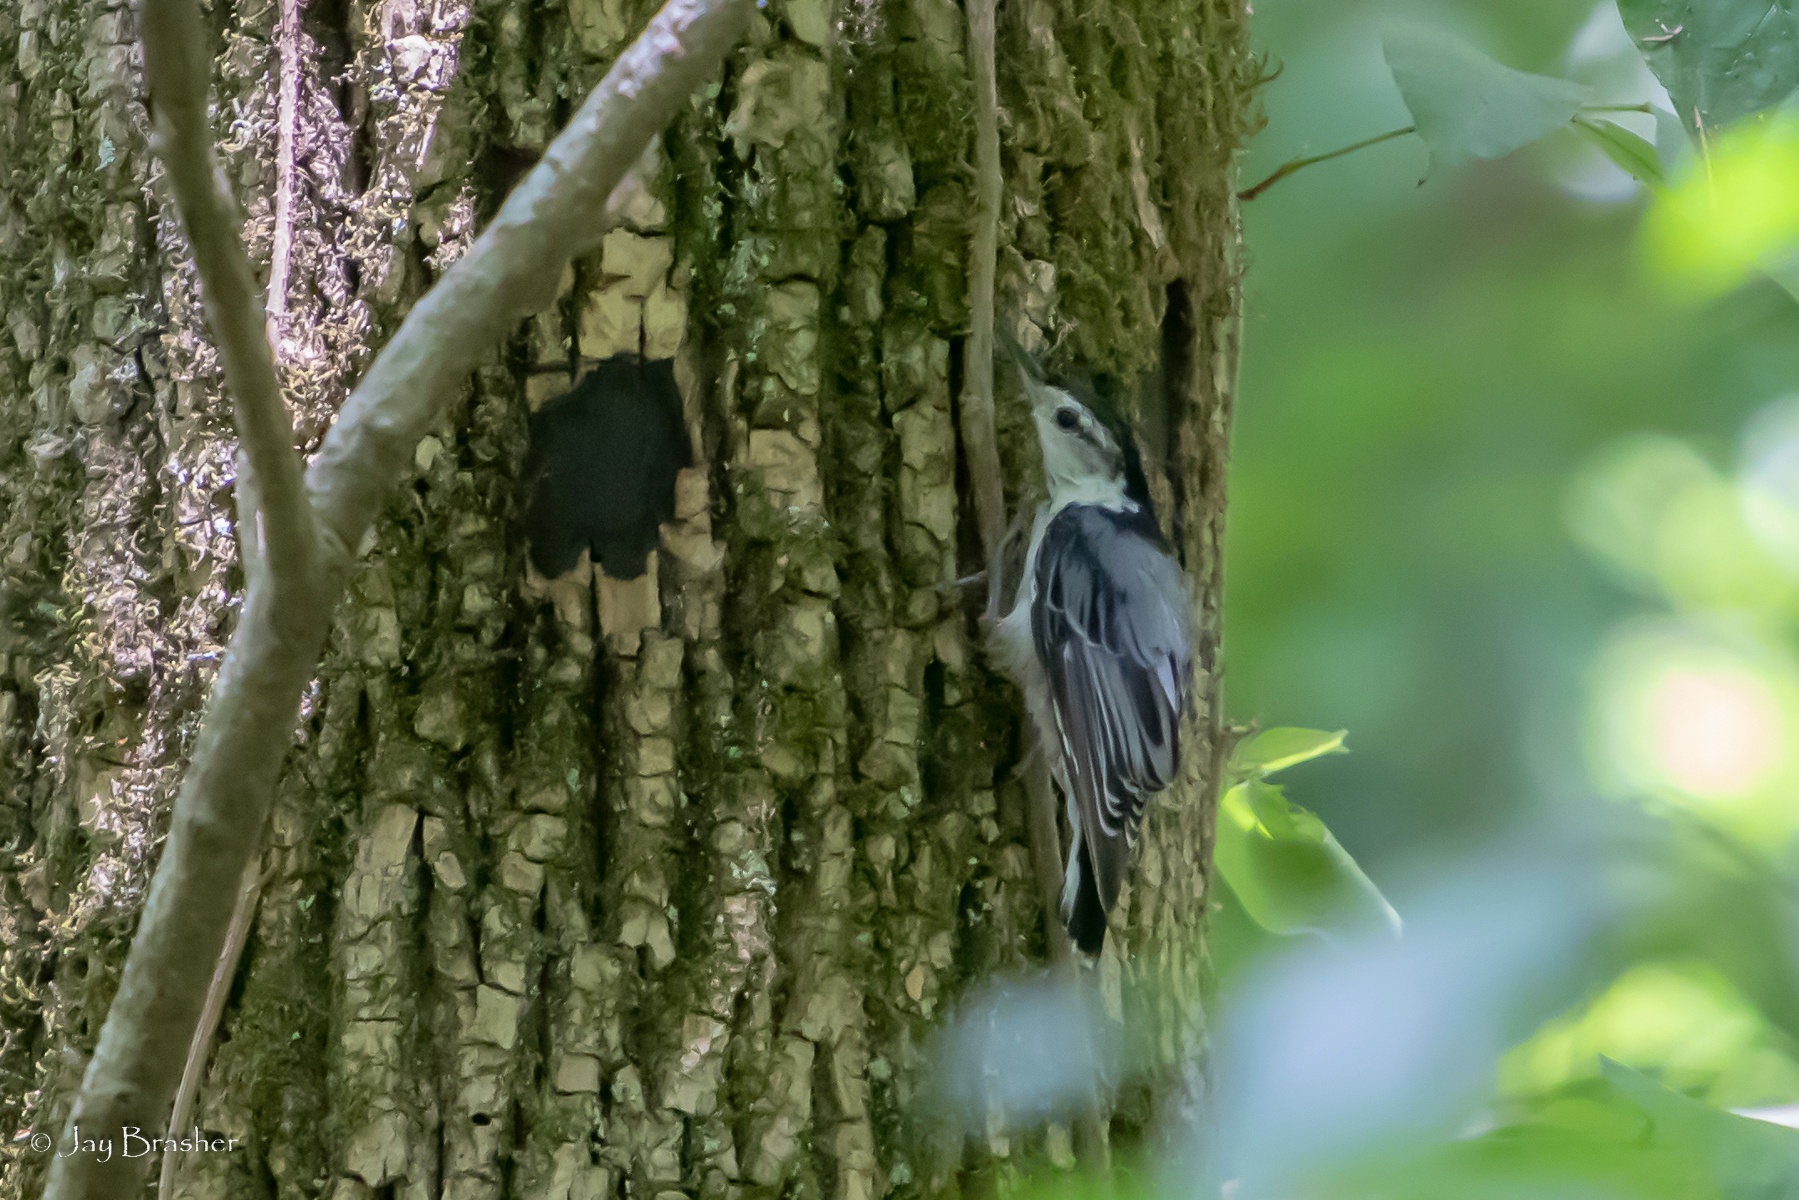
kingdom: Animalia
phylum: Chordata
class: Aves
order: Passeriformes
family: Sittidae
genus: Sitta
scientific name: Sitta carolinensis
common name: White-breasted nuthatch
